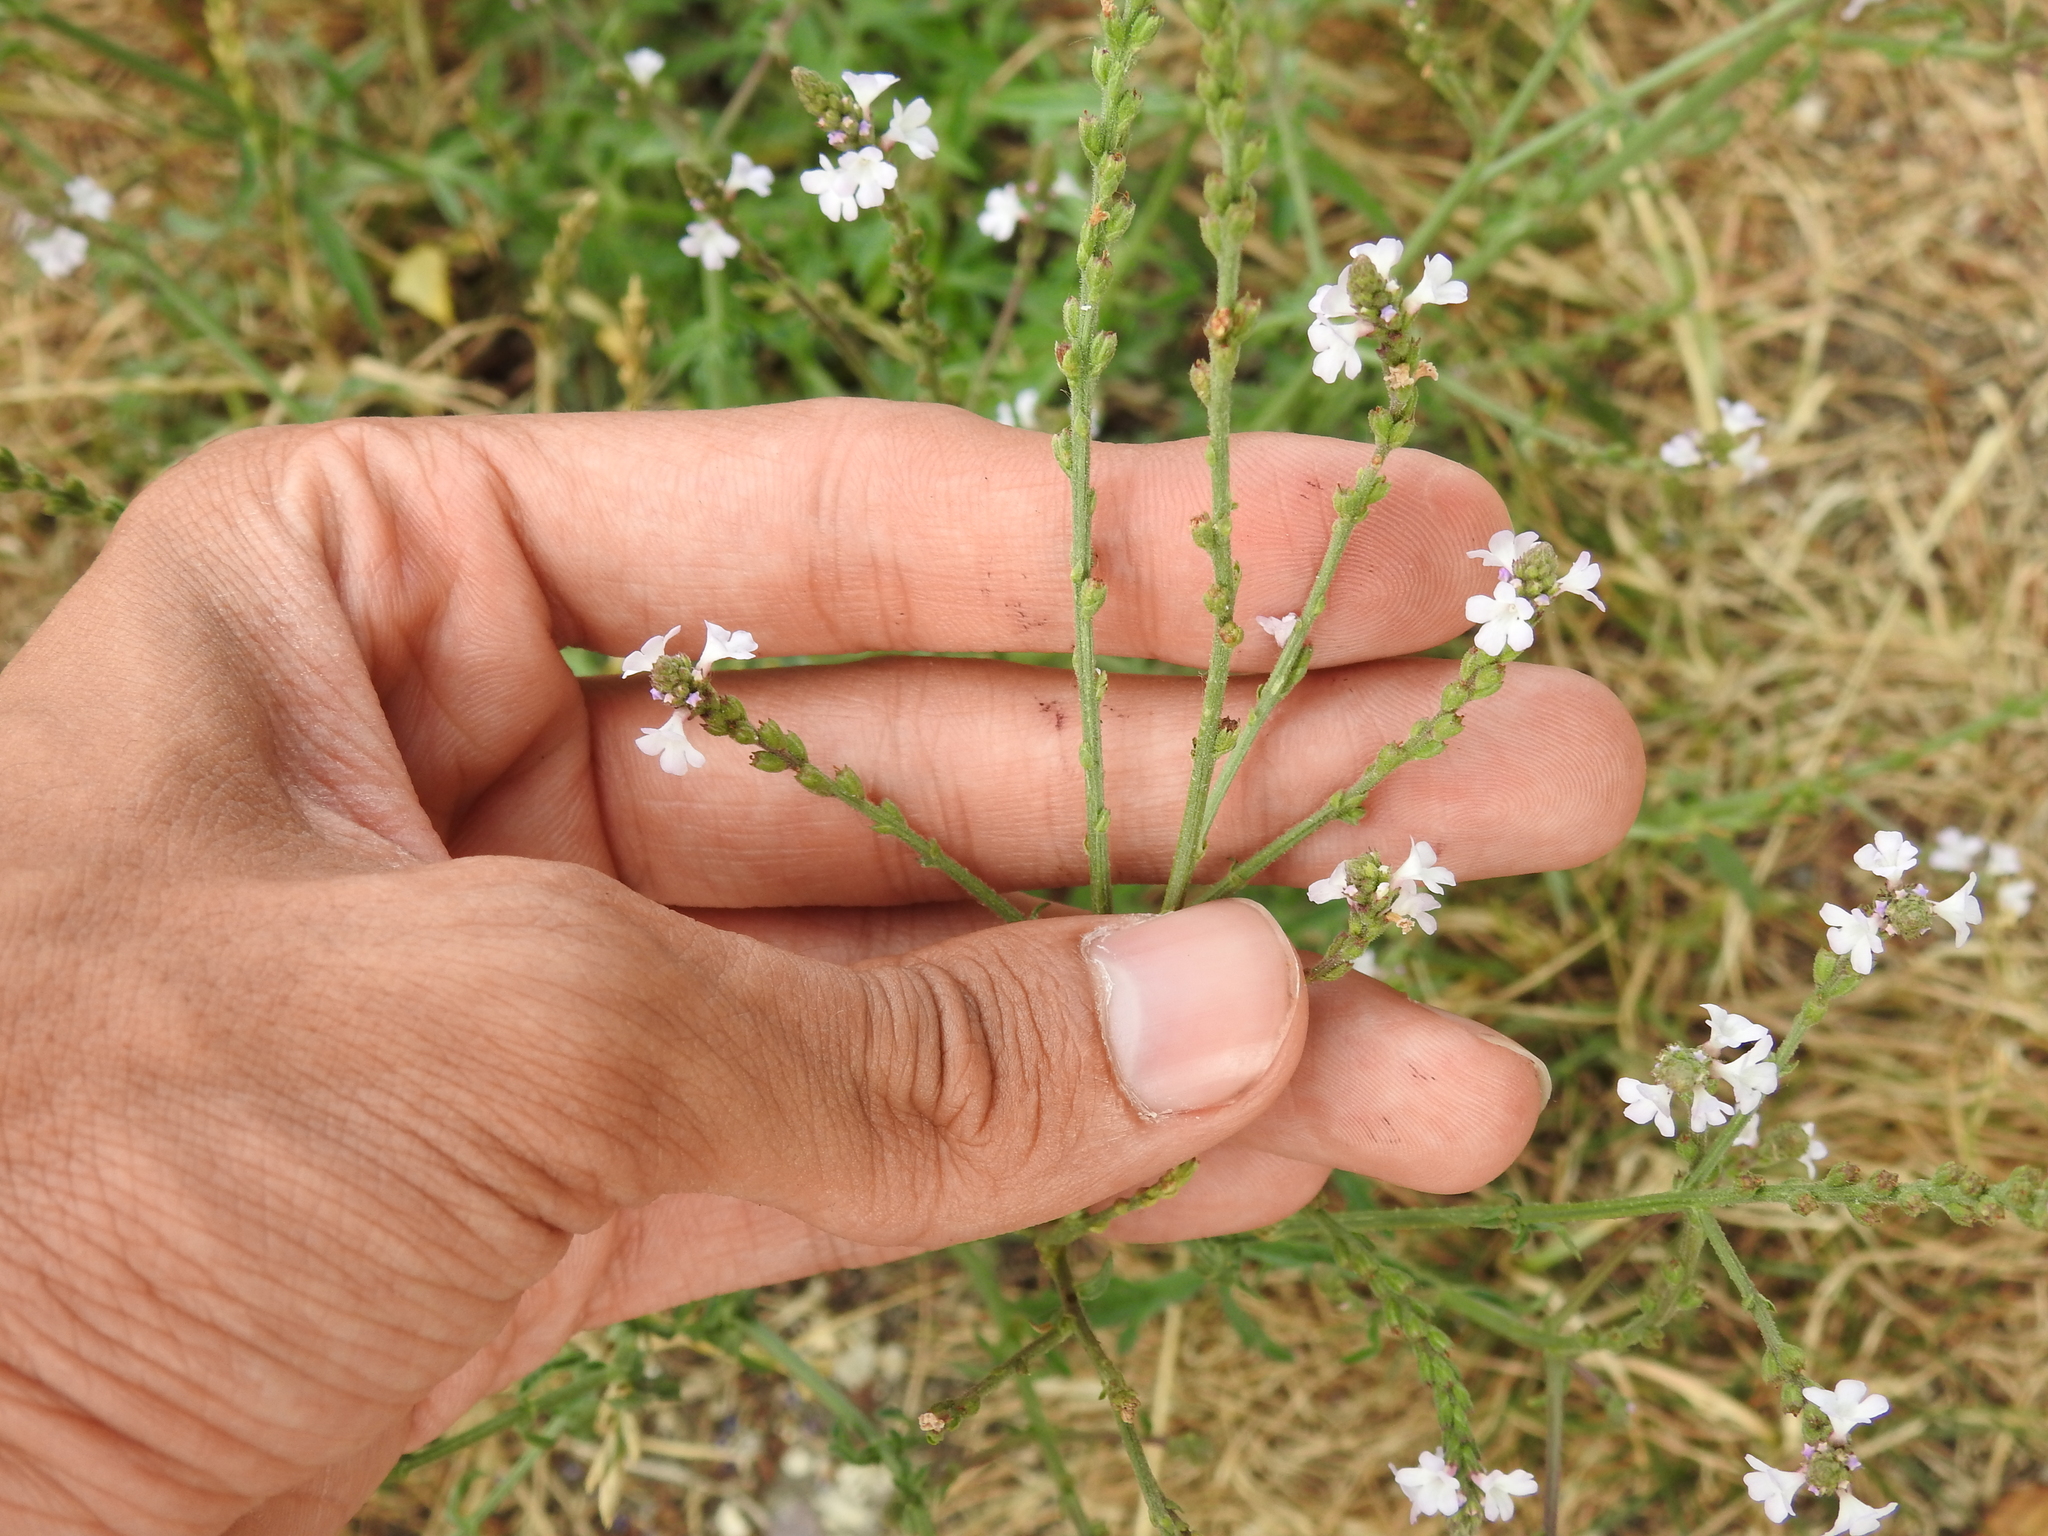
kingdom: Plantae
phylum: Tracheophyta
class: Magnoliopsida
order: Lamiales
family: Verbenaceae
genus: Verbena
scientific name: Verbena officinalis
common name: Vervain
